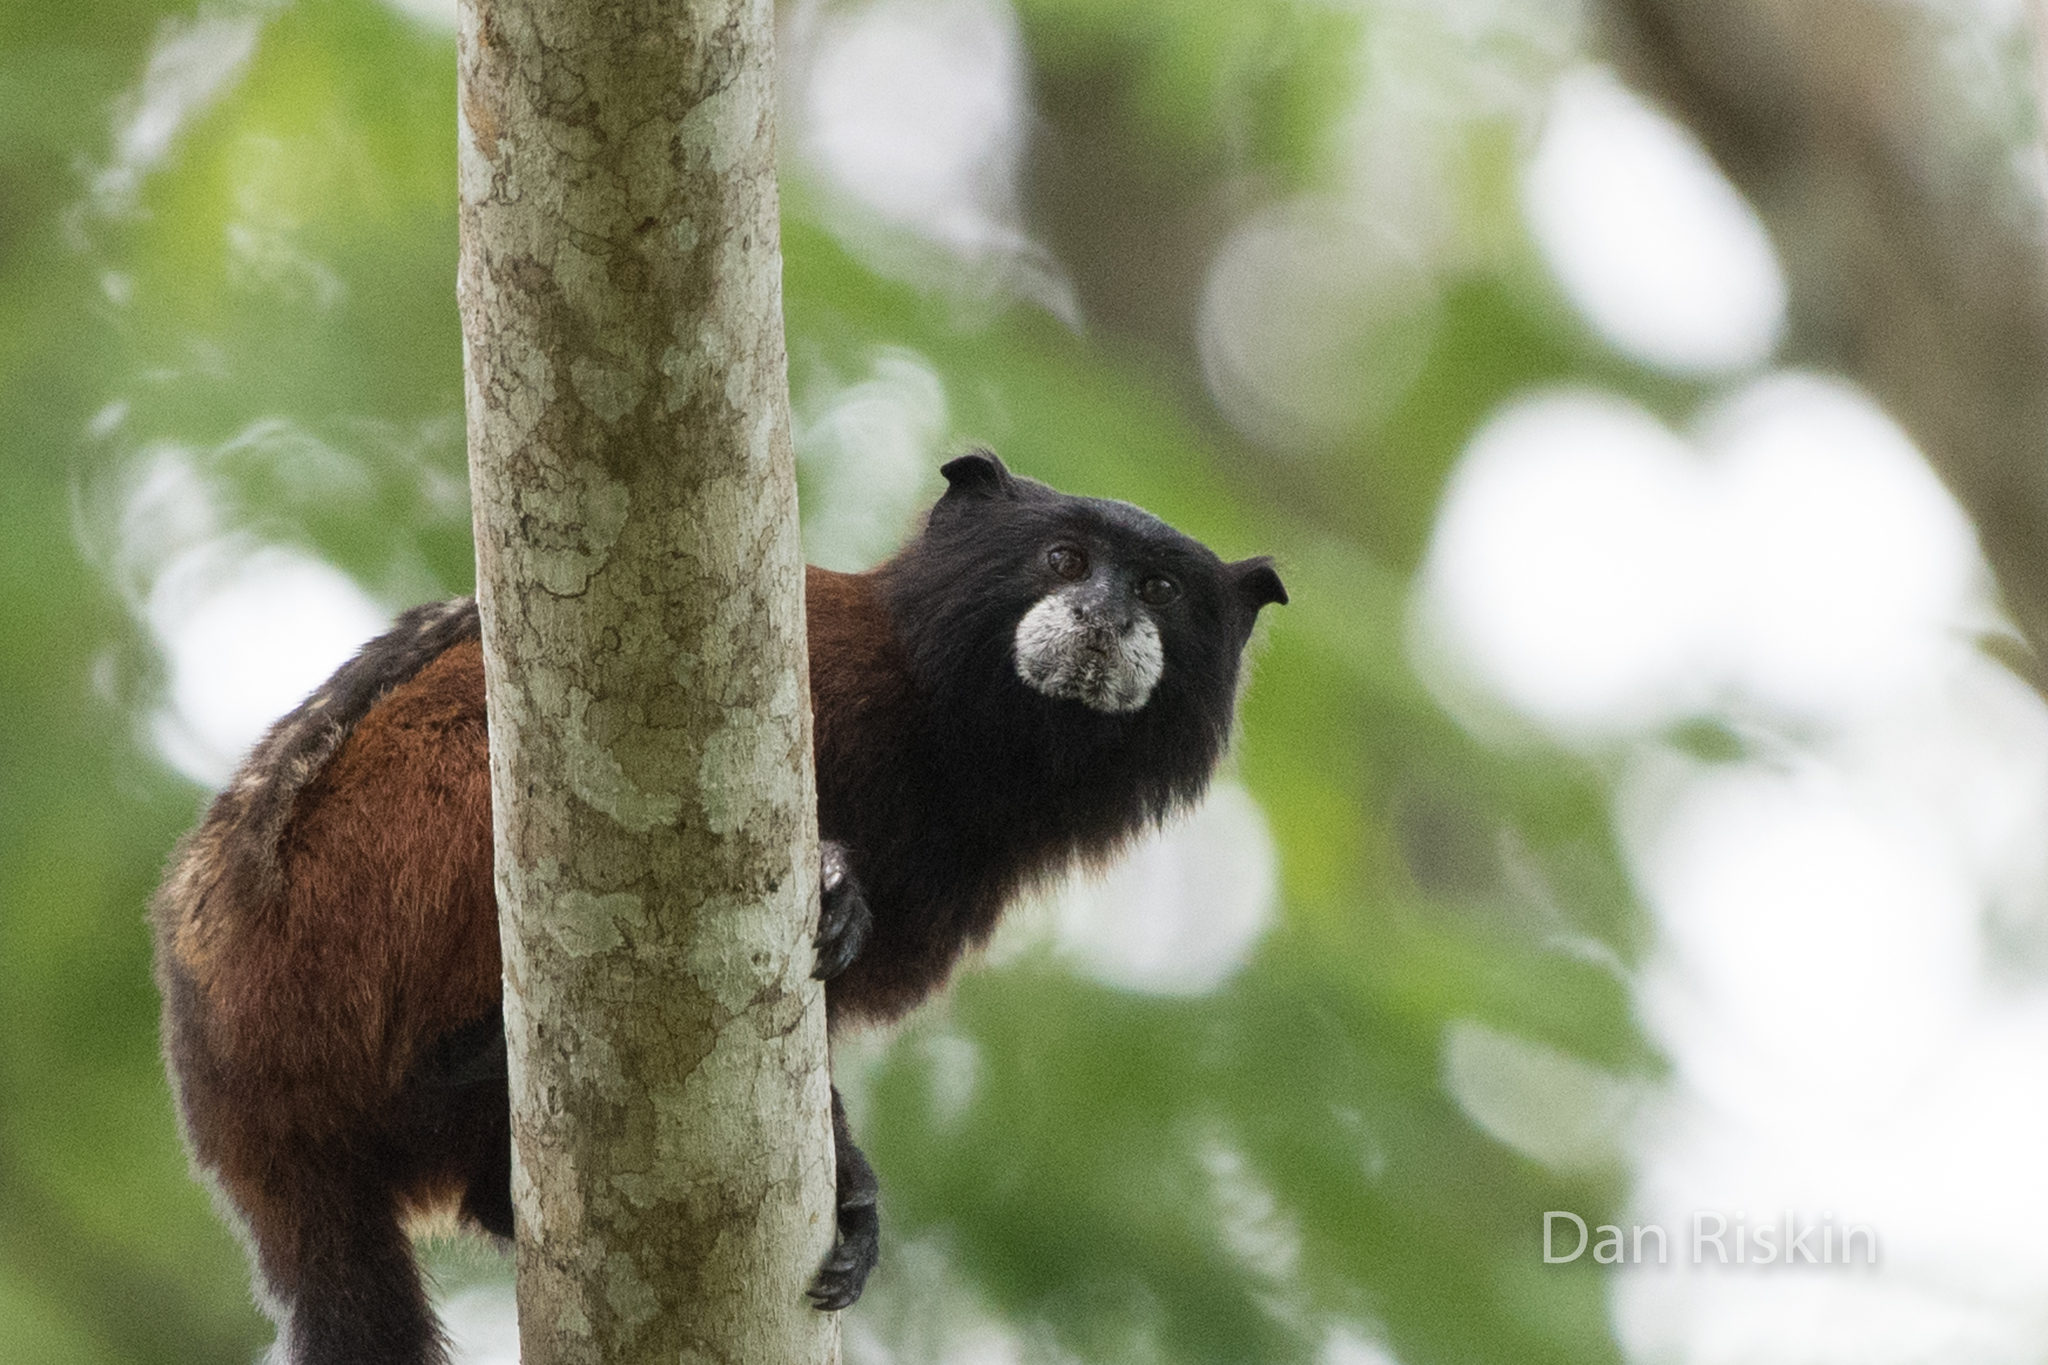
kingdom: Animalia
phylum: Chordata
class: Mammalia
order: Primates
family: Callitrichidae
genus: Leontocebus
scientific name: Leontocebus illigeri
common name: Illiger's saddle-back tamarin
